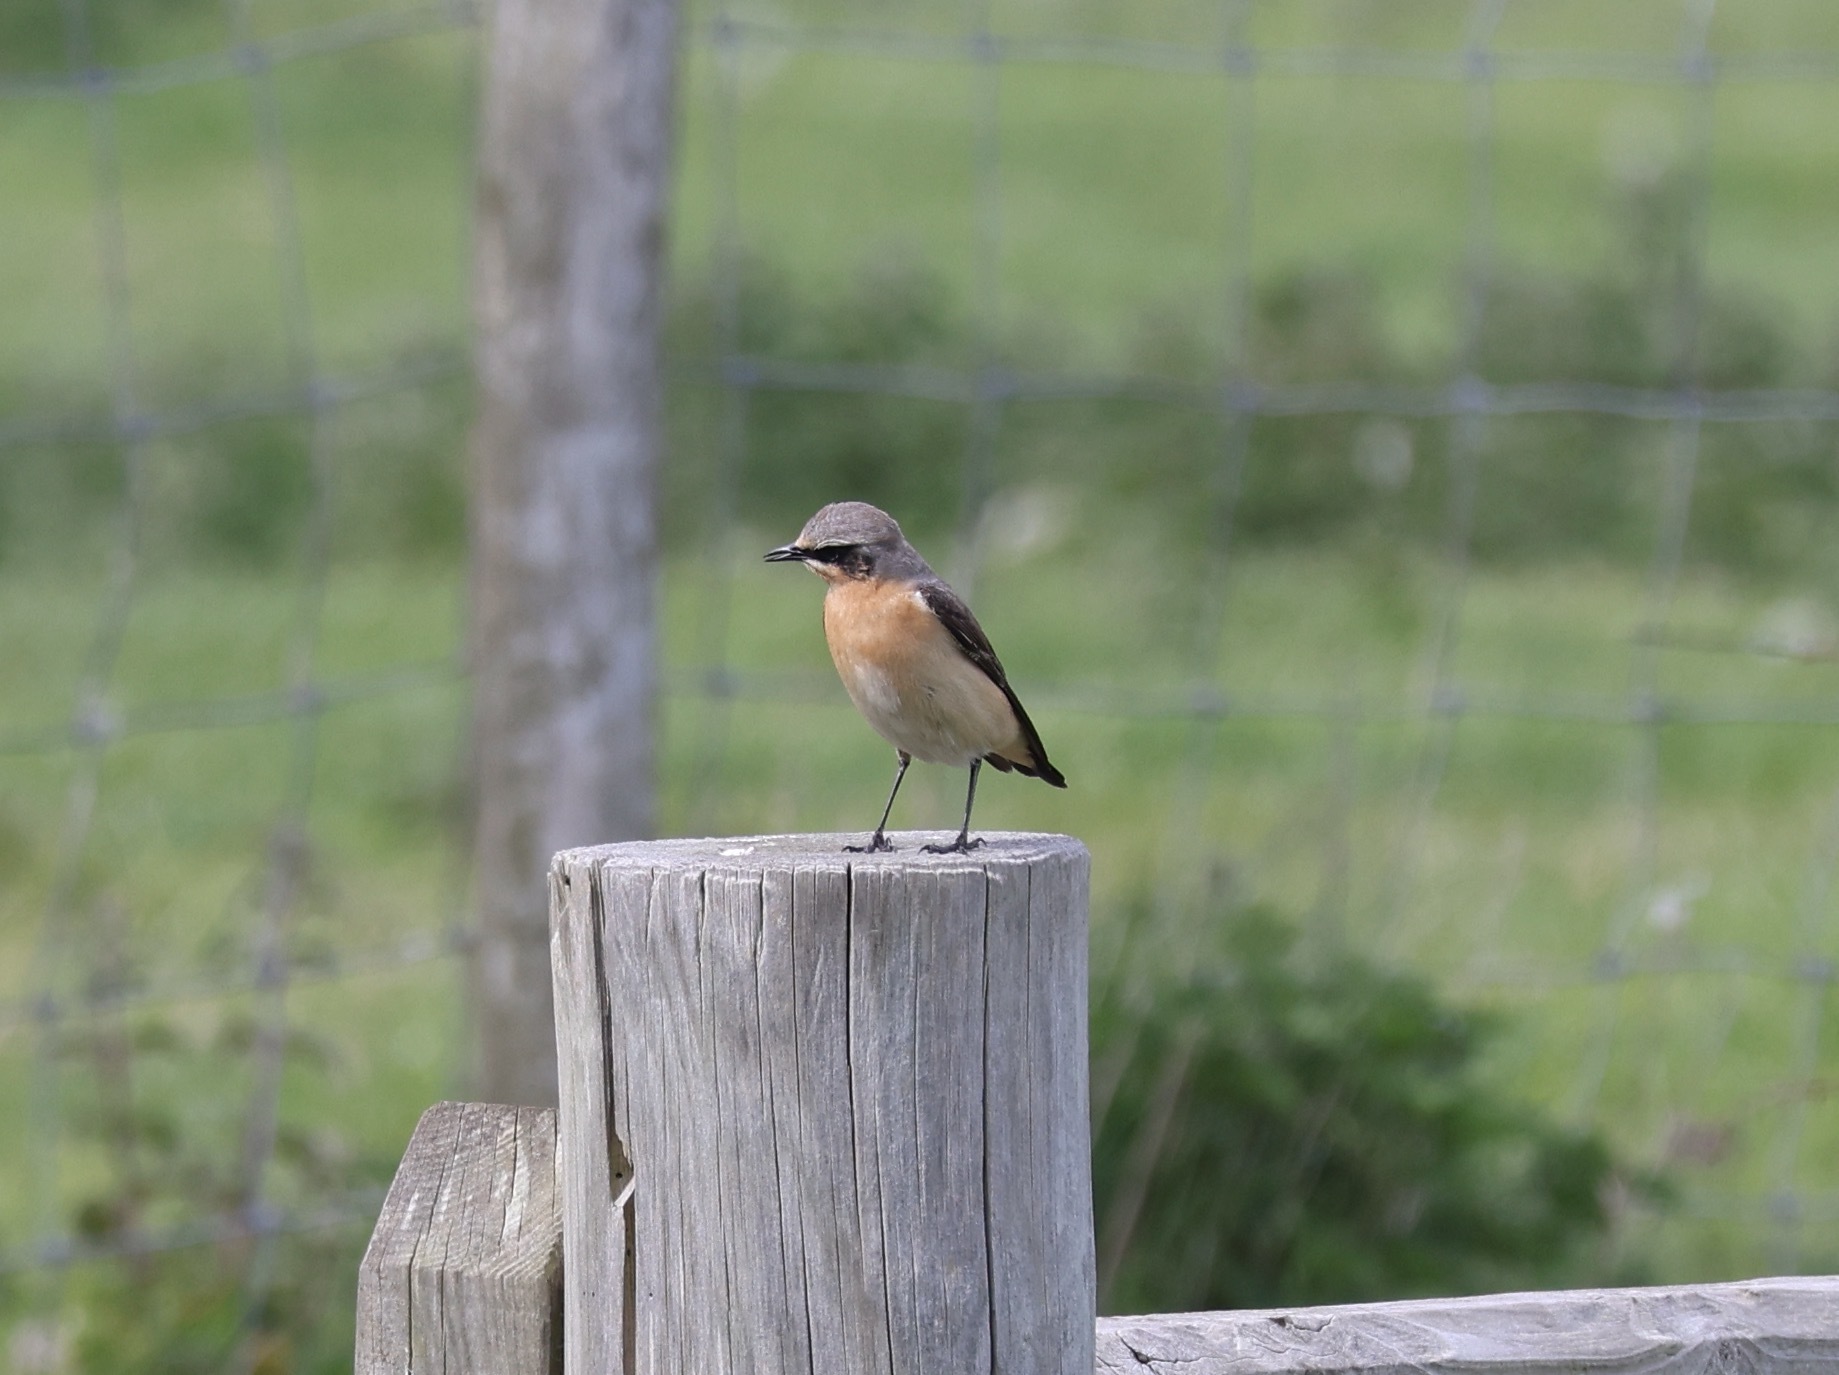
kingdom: Animalia
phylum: Chordata
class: Aves
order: Passeriformes
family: Muscicapidae
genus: Oenanthe
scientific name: Oenanthe oenanthe
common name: Northern wheatear
